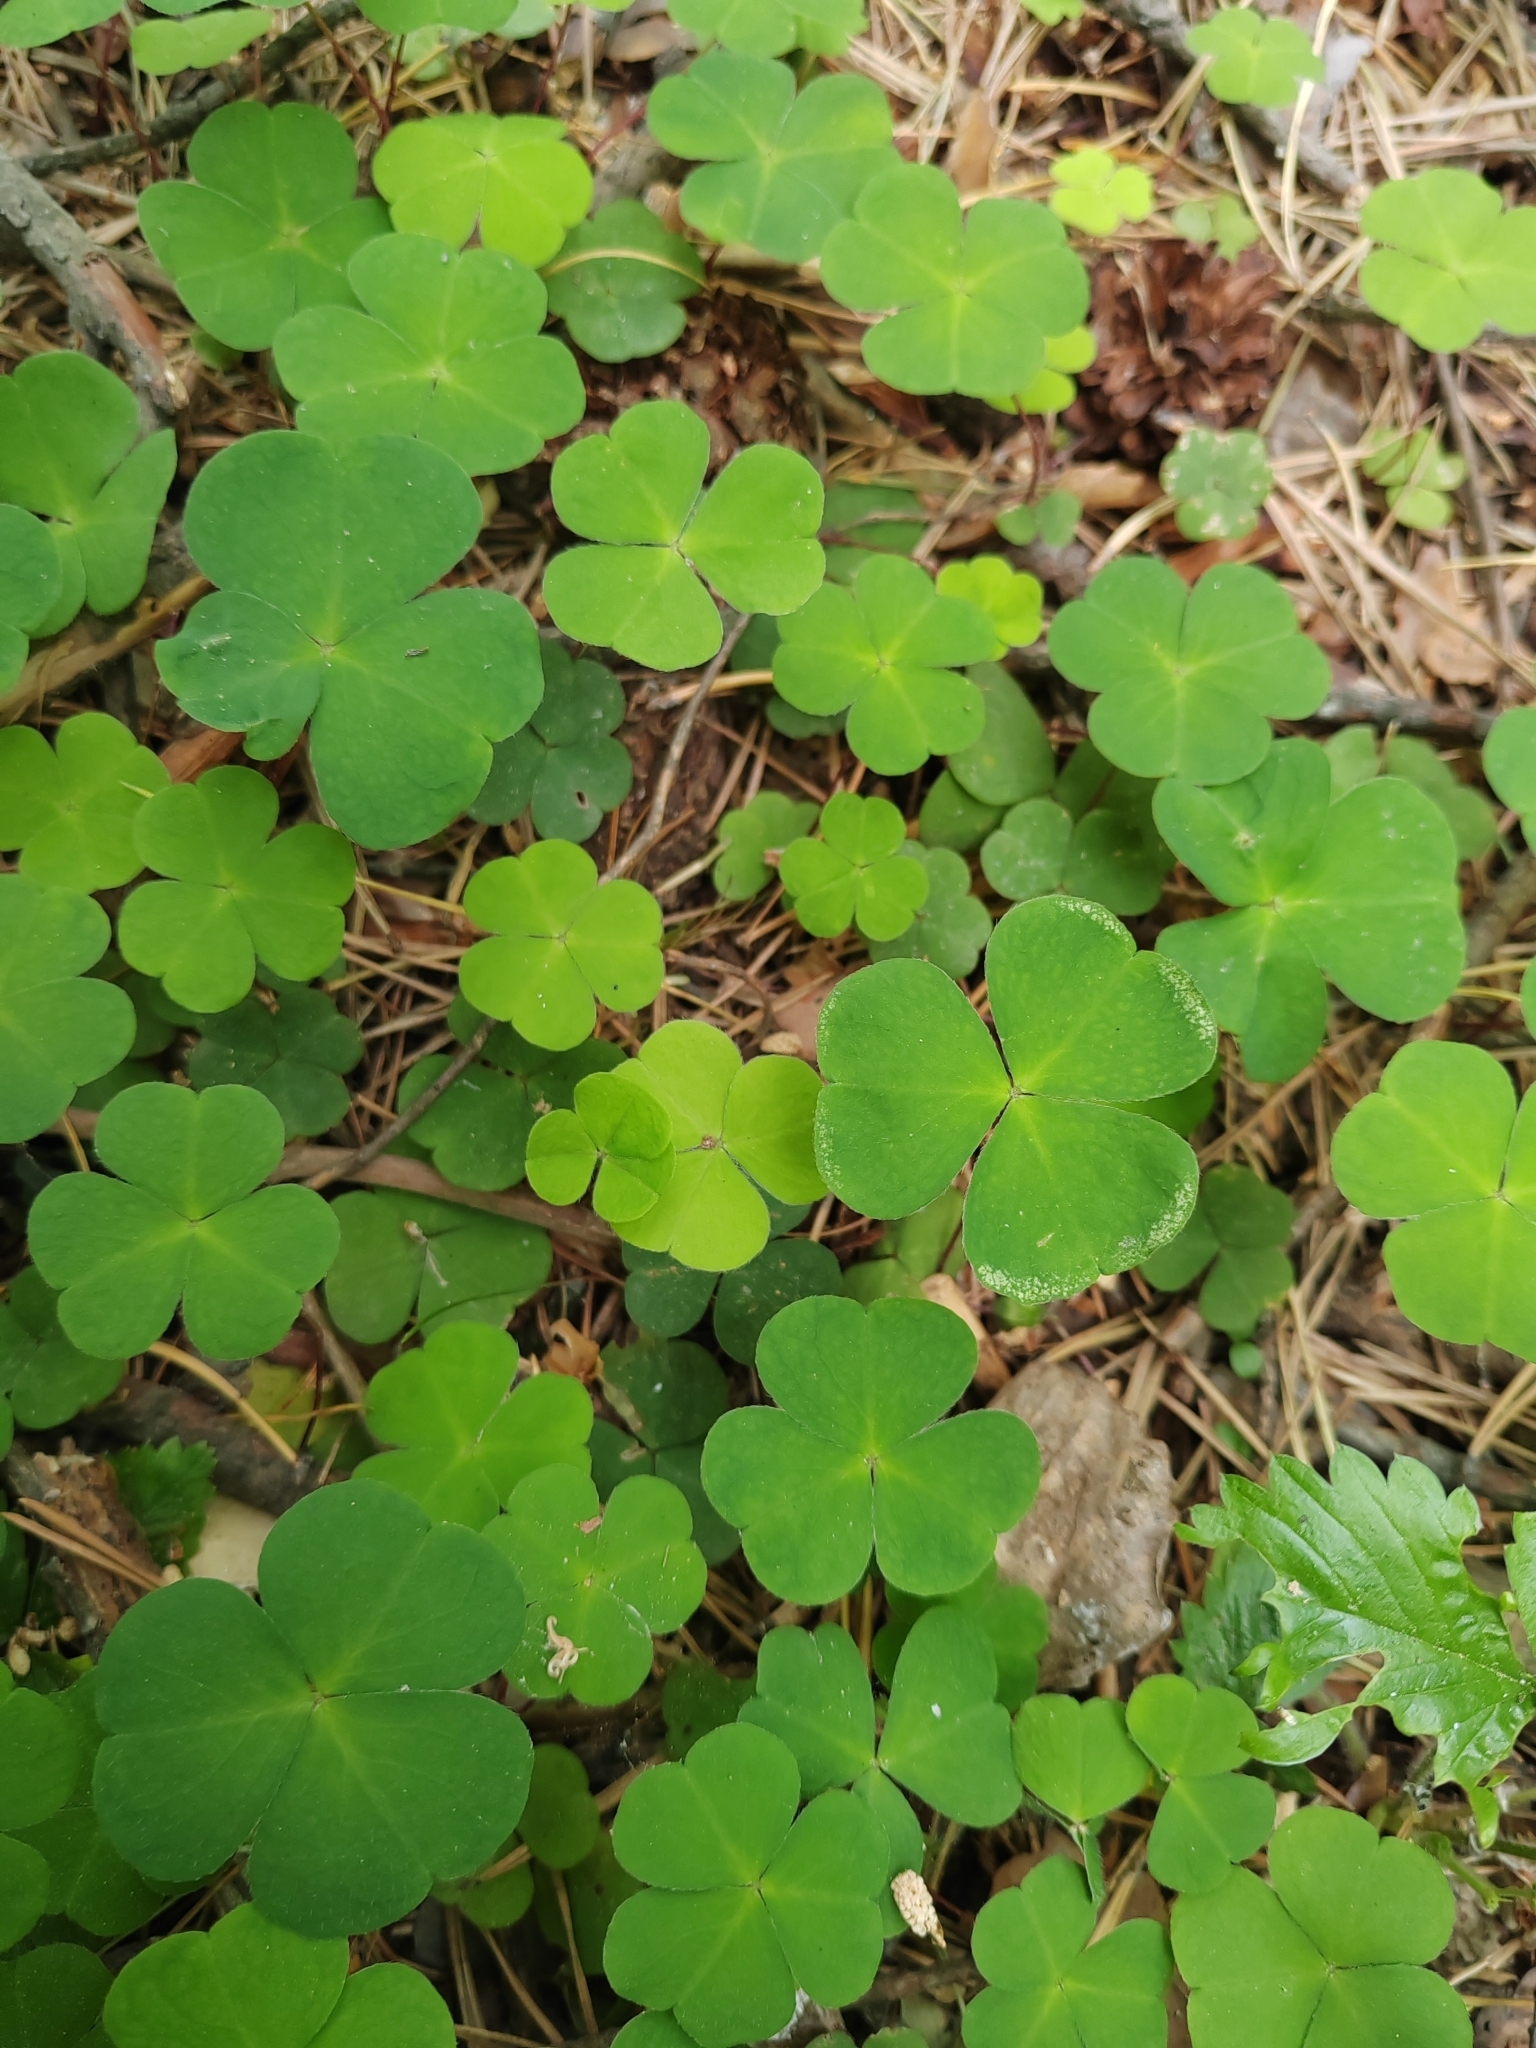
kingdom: Plantae
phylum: Tracheophyta
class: Magnoliopsida
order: Oxalidales
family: Oxalidaceae
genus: Oxalis
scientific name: Oxalis acetosella
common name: Wood-sorrel
